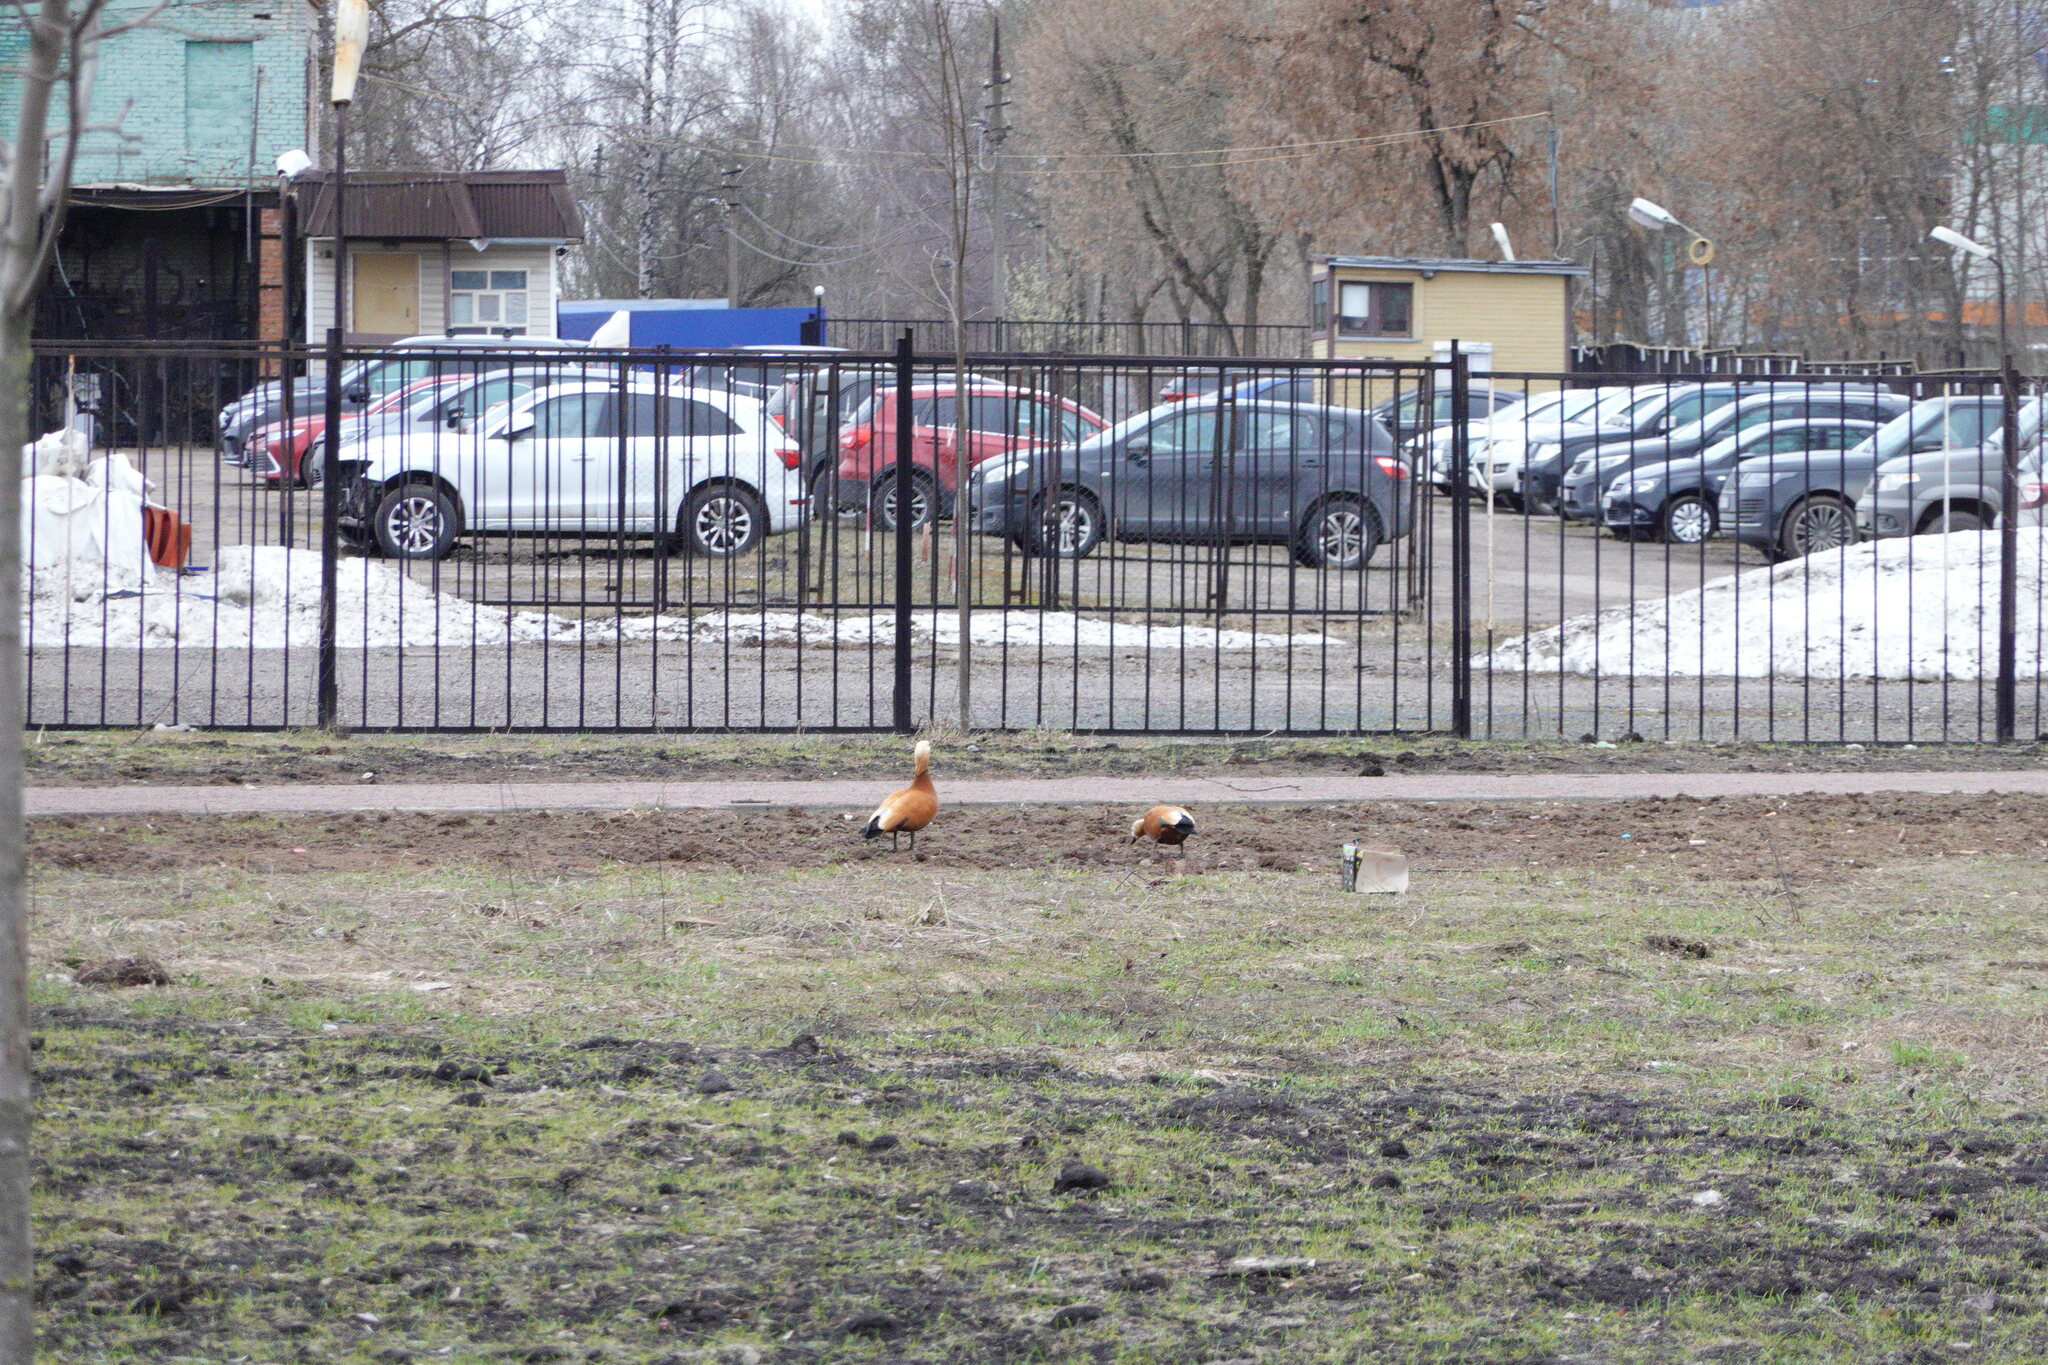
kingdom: Animalia
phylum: Chordata
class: Aves
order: Anseriformes
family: Anatidae
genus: Tadorna
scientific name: Tadorna ferruginea
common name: Ruddy shelduck
